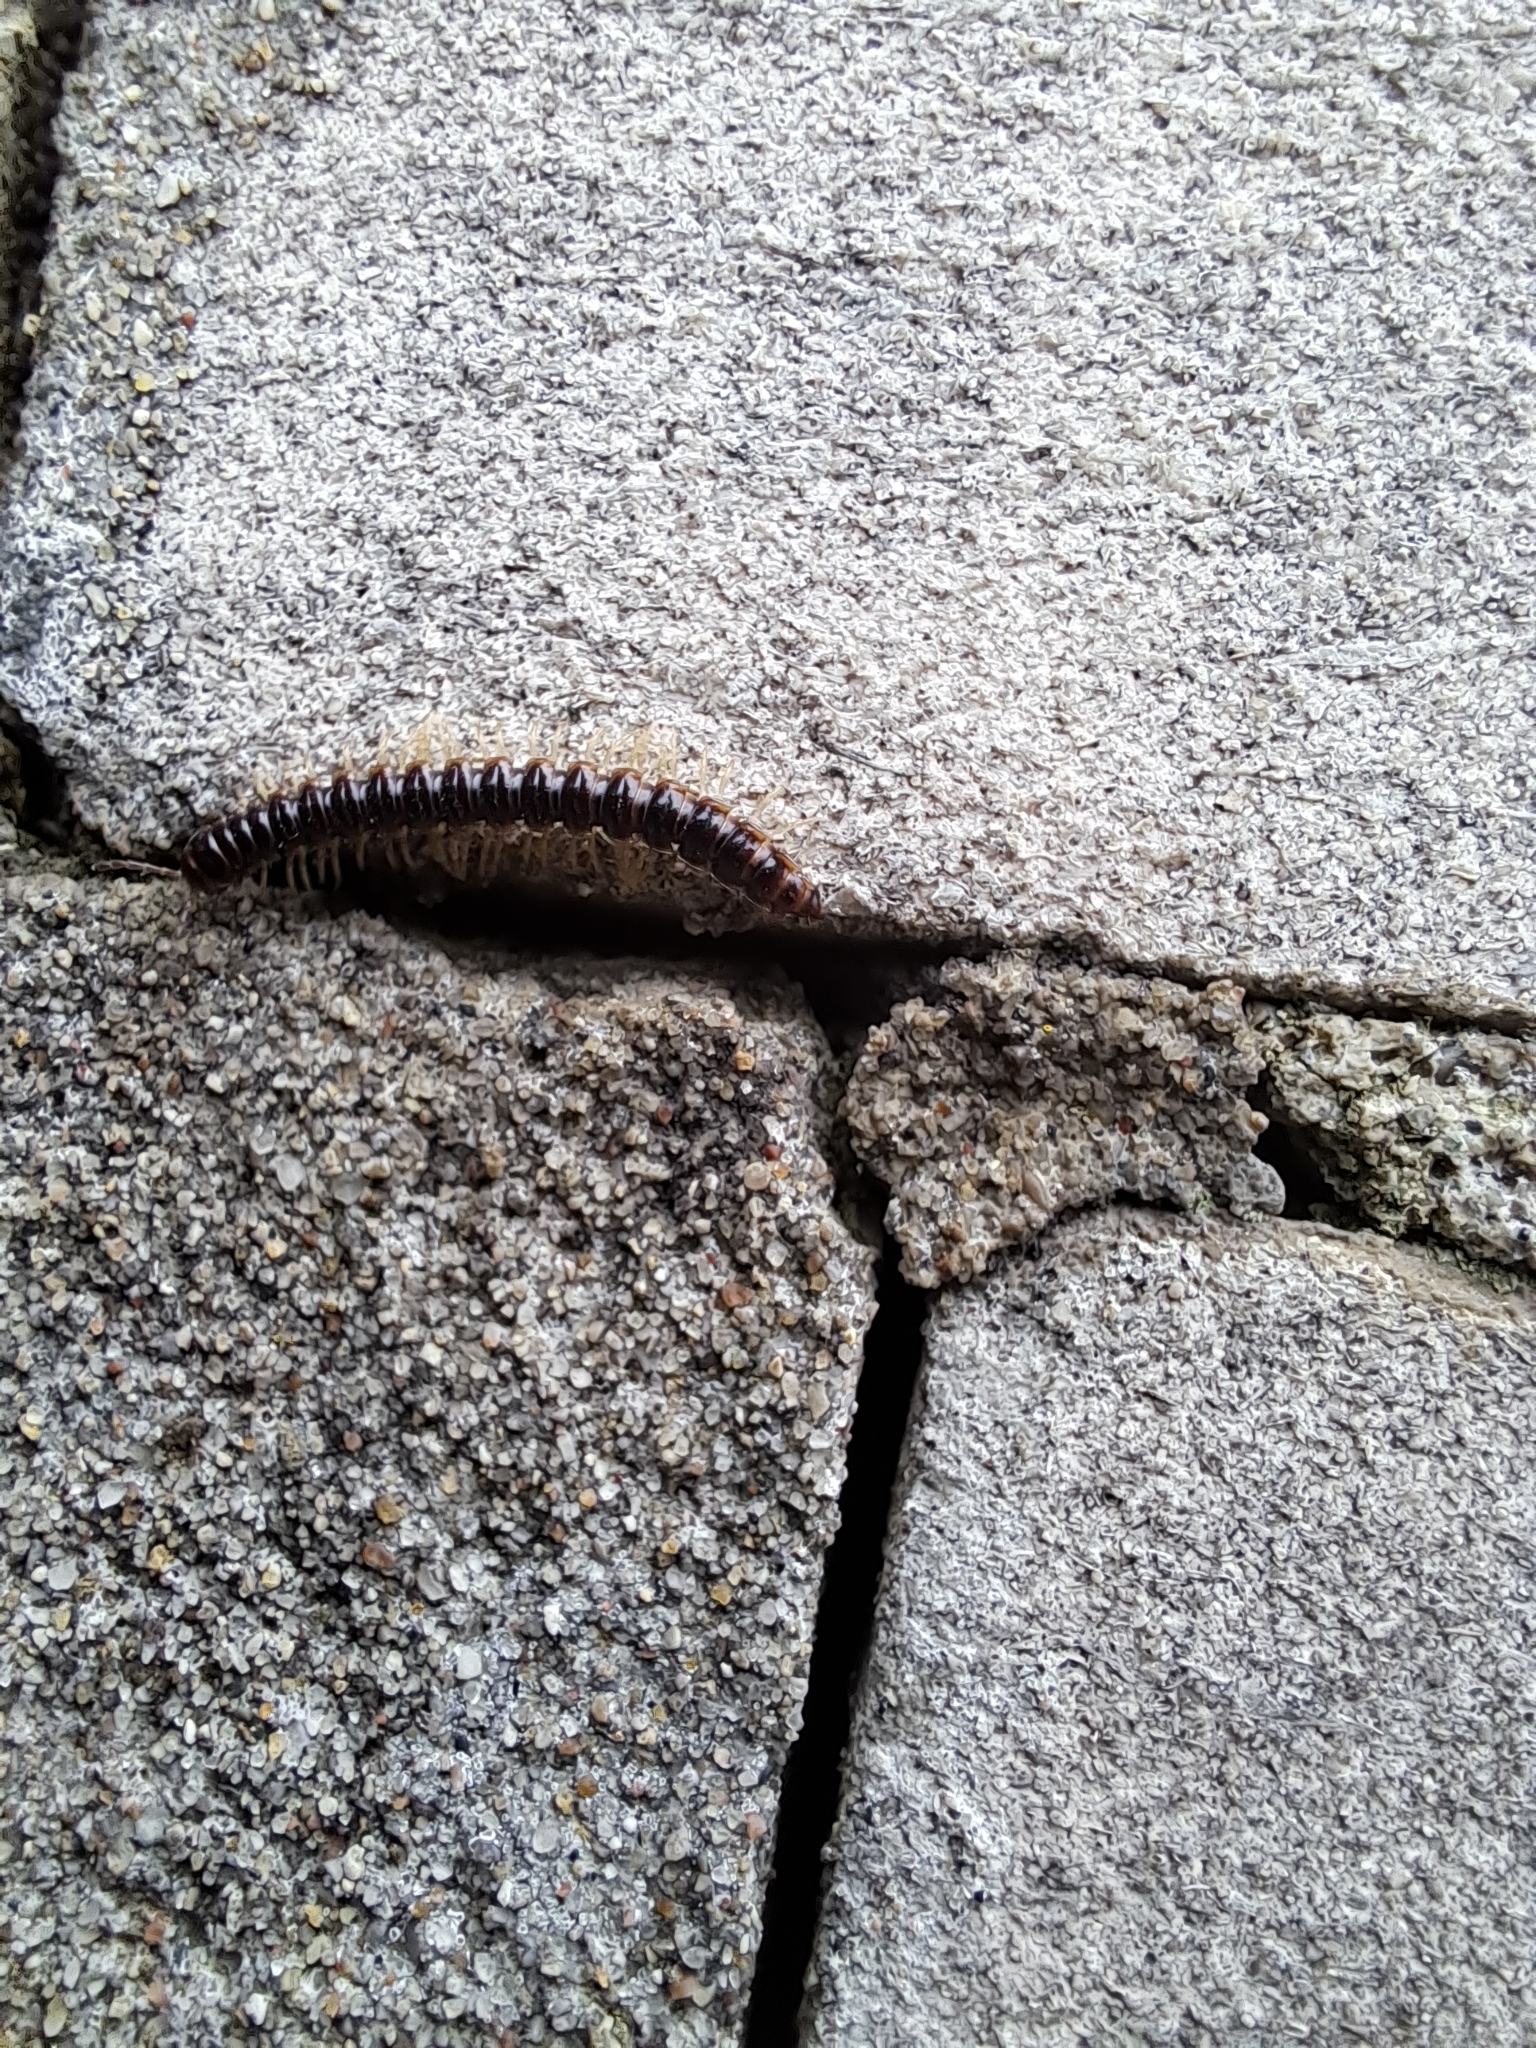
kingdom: Animalia
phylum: Arthropoda
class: Diplopoda
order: Polydesmida
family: Paradoxosomatidae
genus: Oxidus
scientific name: Oxidus gracilis
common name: Greenhouse millipede
